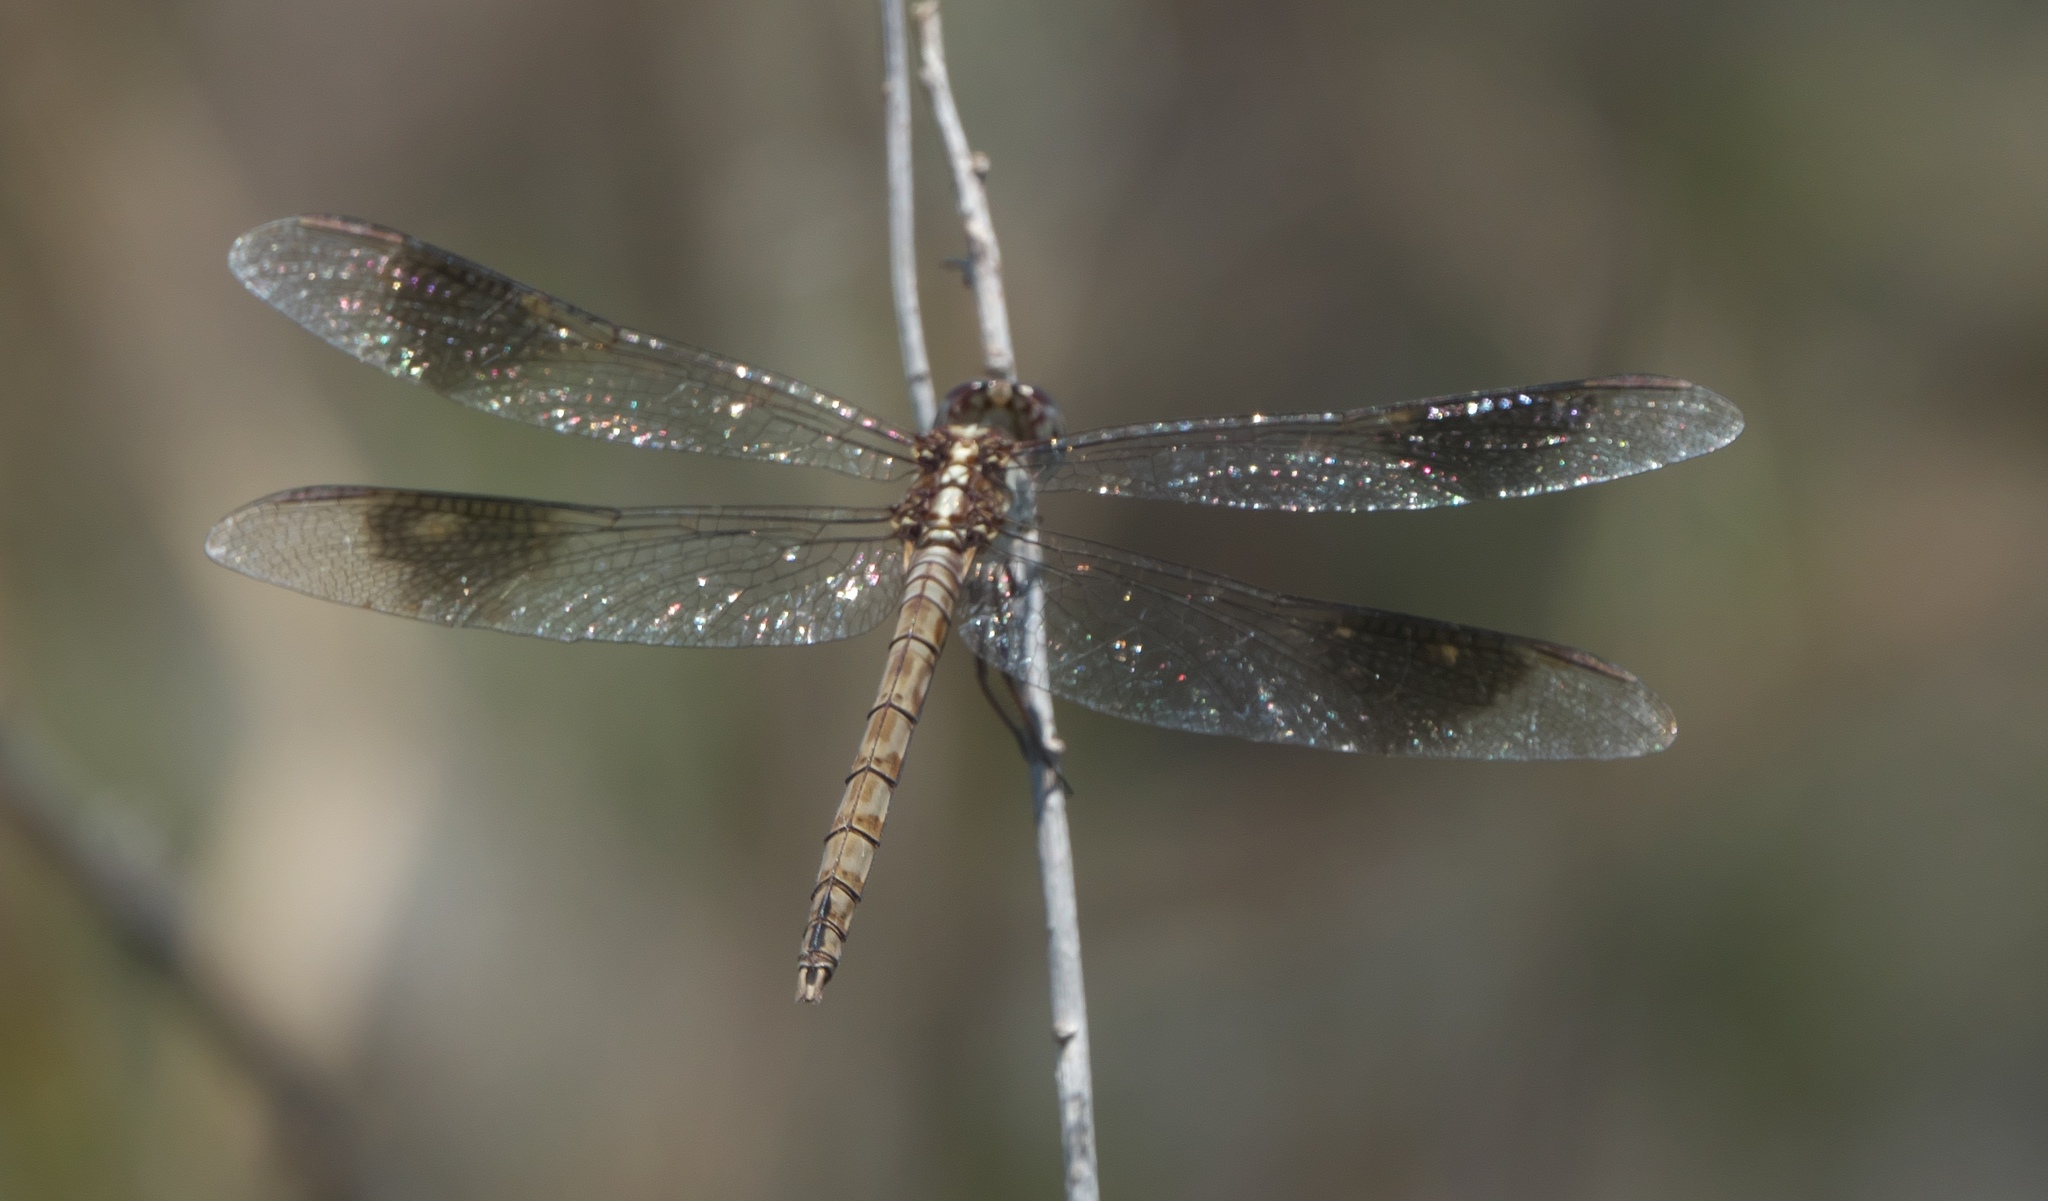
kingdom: Animalia
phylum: Arthropoda
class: Insecta
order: Odonata
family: Libellulidae
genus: Erythrodiplax
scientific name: Erythrodiplax umbrata
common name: Band-winged dragonlet
